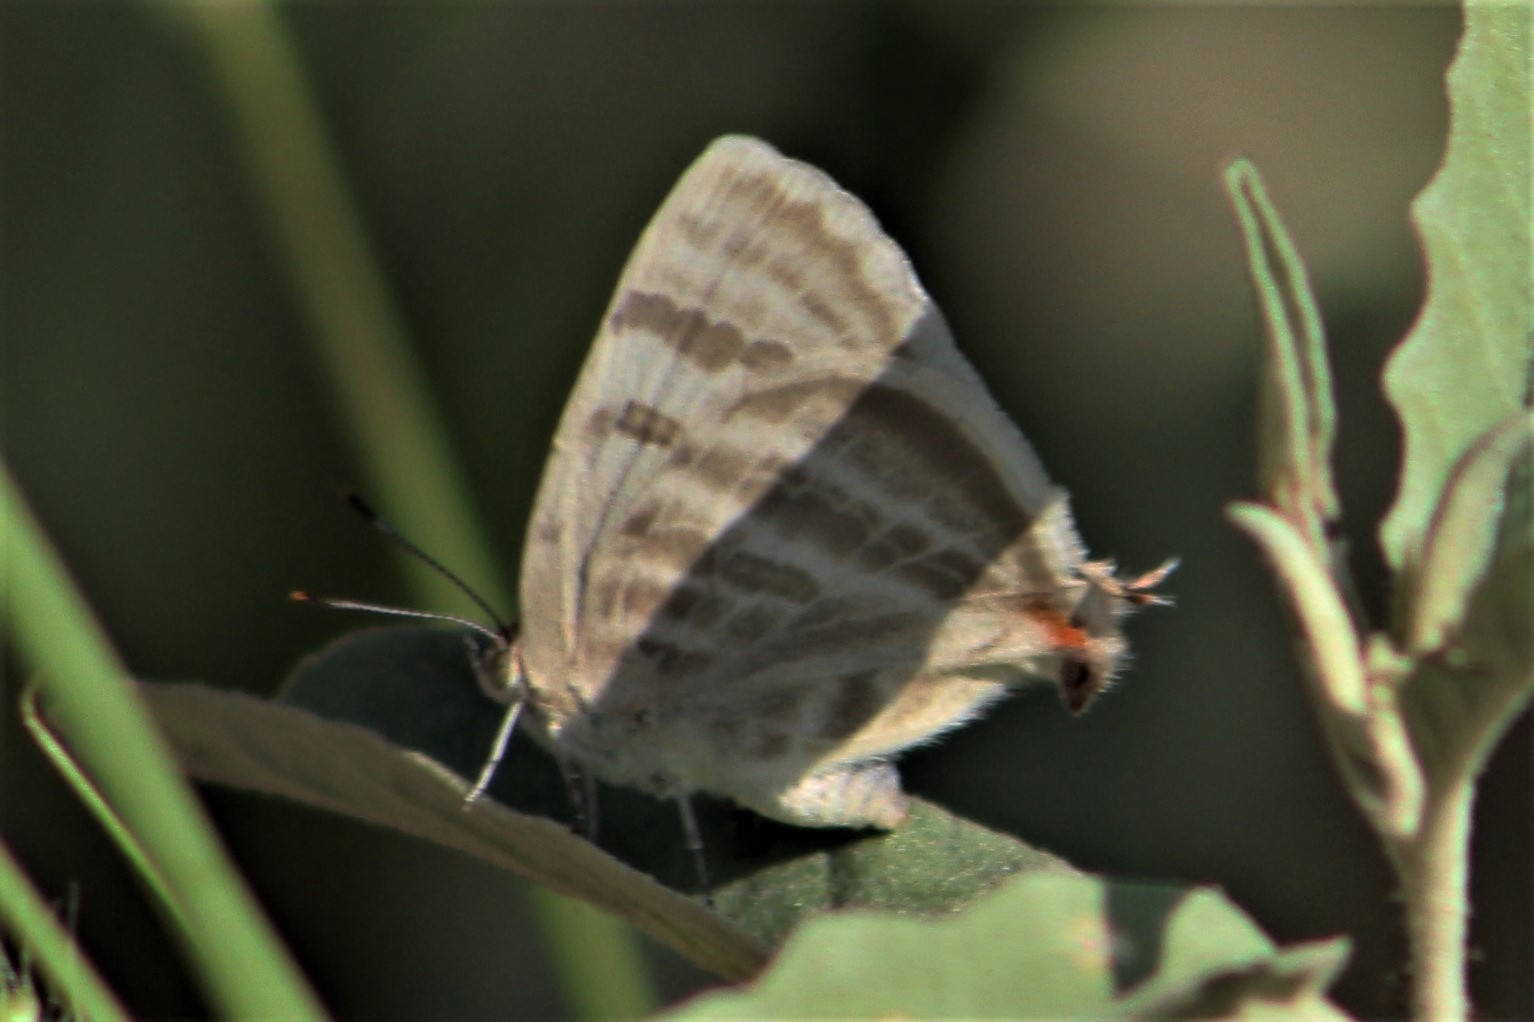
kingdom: Animalia
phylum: Arthropoda
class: Insecta
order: Lepidoptera
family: Lycaenidae
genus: Dolymorpha
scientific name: Dolymorpha jada
